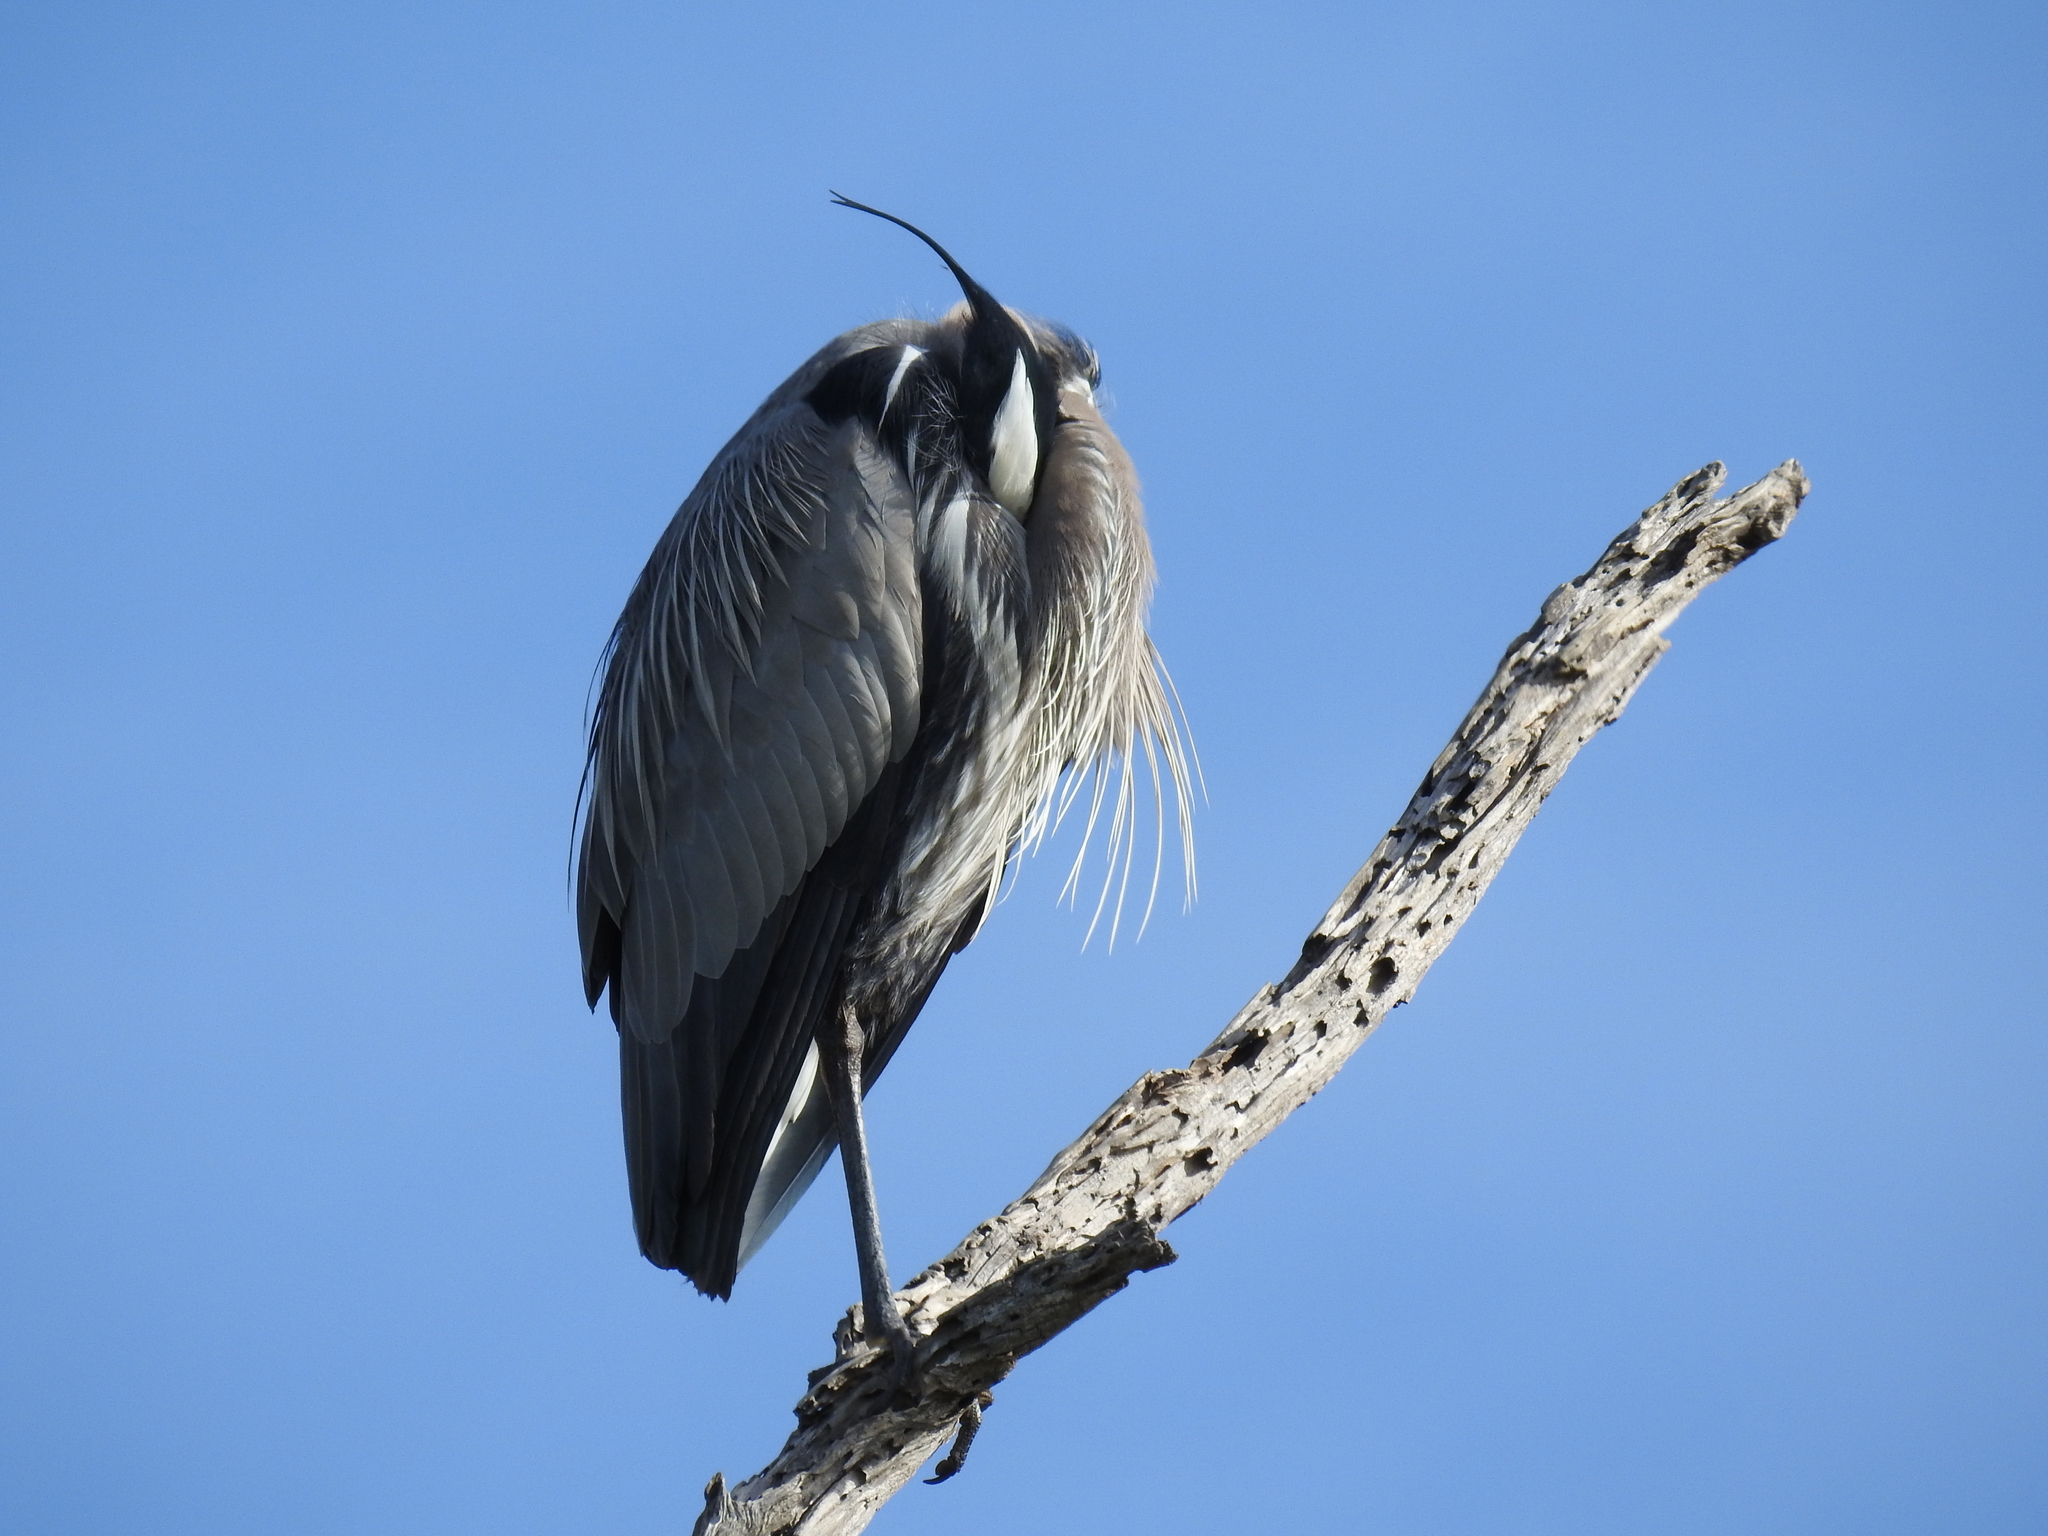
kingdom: Animalia
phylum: Chordata
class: Aves
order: Pelecaniformes
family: Ardeidae
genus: Ardea
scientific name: Ardea herodias
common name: Great blue heron
